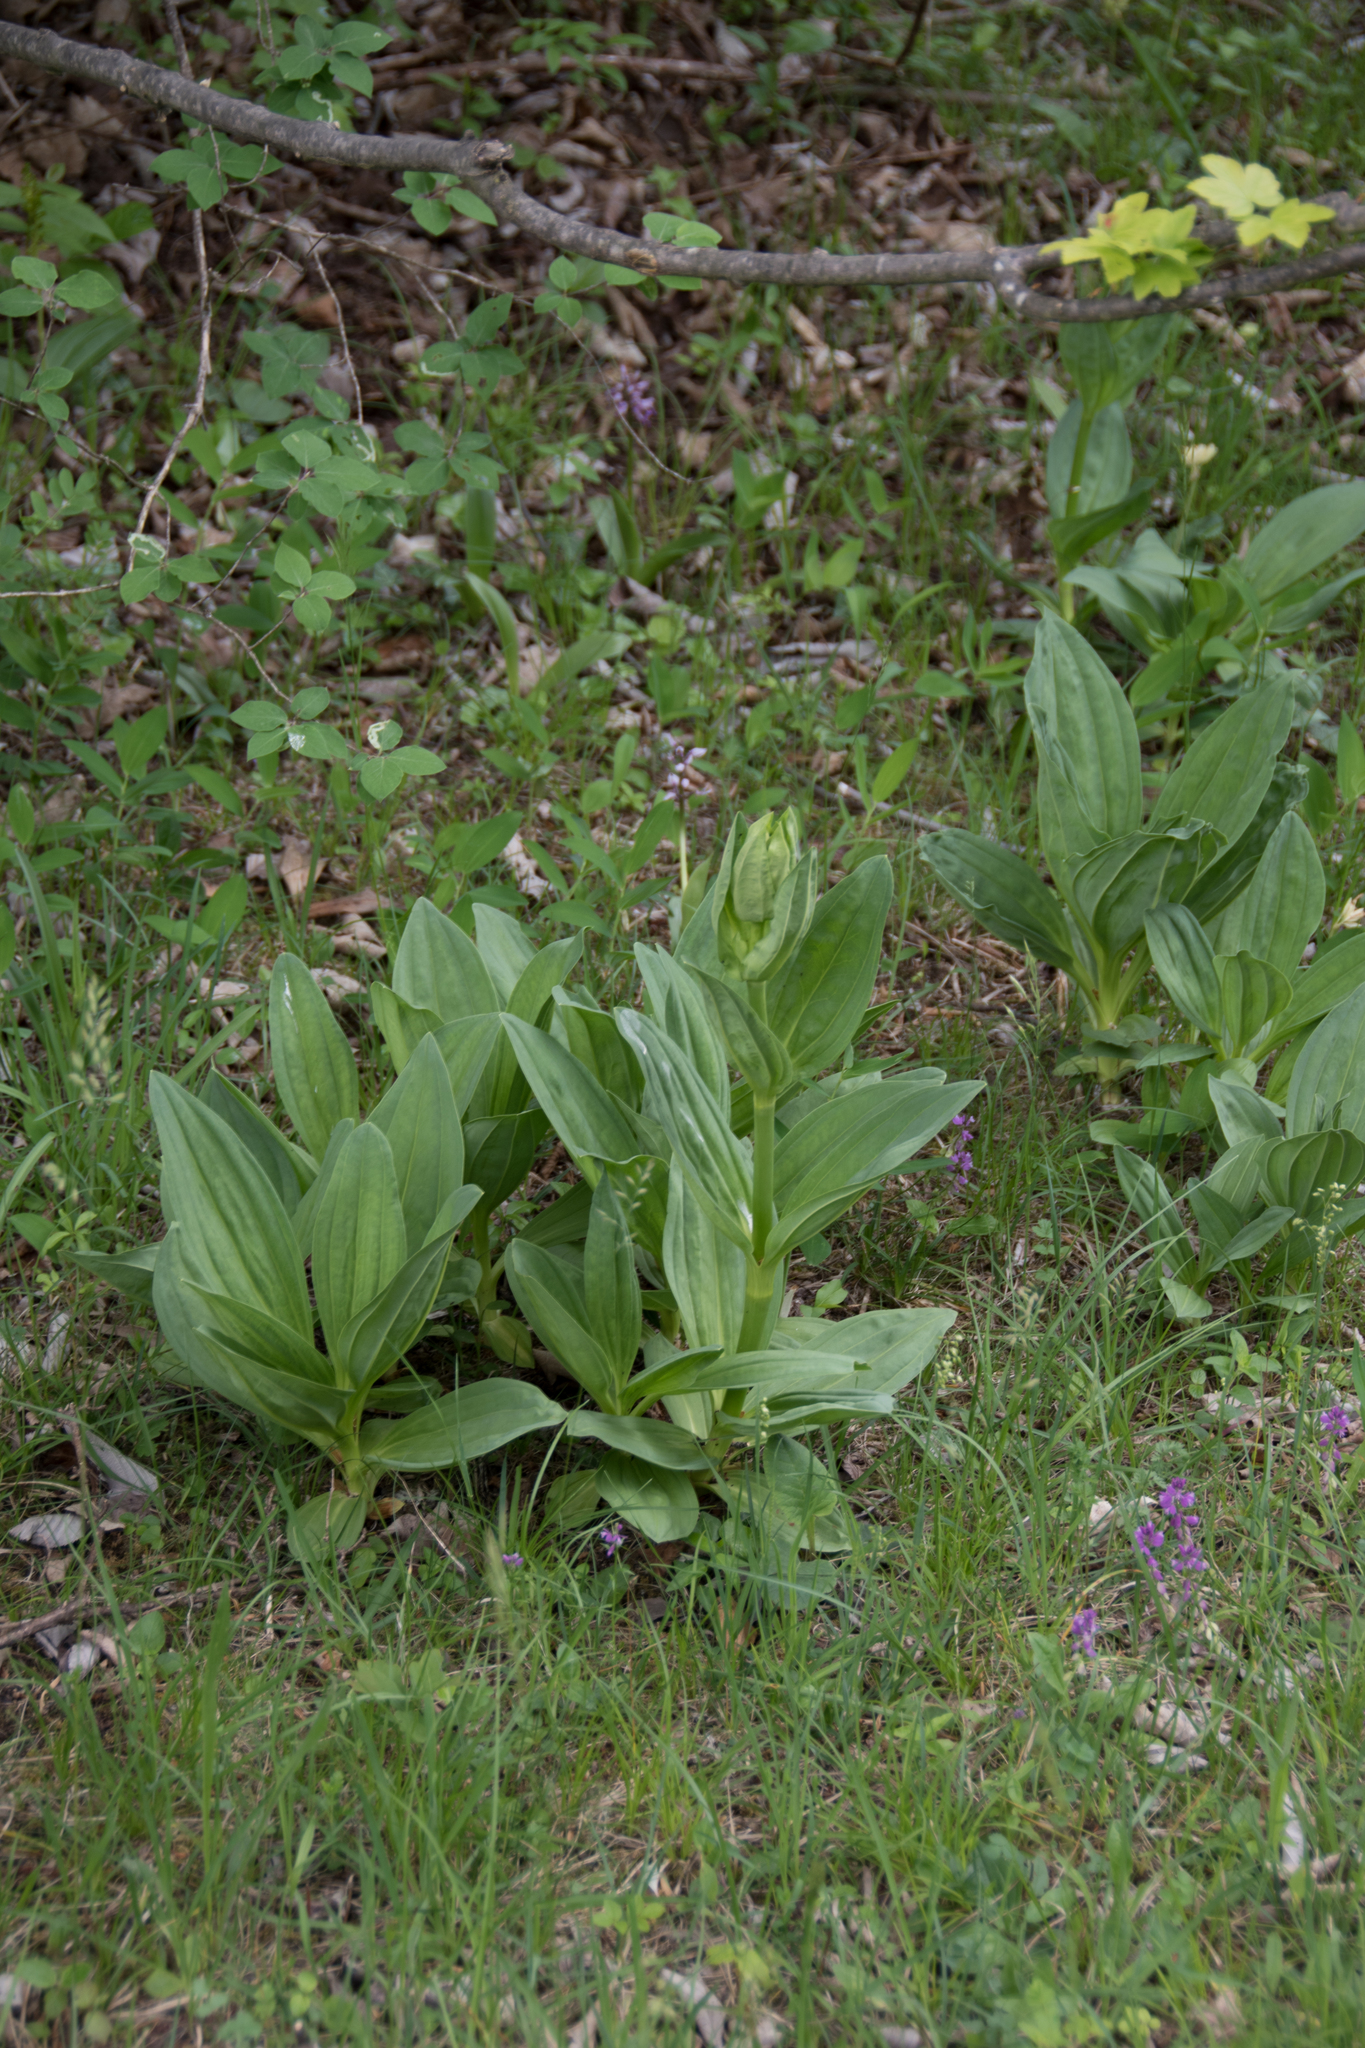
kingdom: Plantae
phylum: Tracheophyta
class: Magnoliopsida
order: Gentianales
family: Gentianaceae
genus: Gentiana
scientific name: Gentiana lutea
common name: Great yellow gentian
